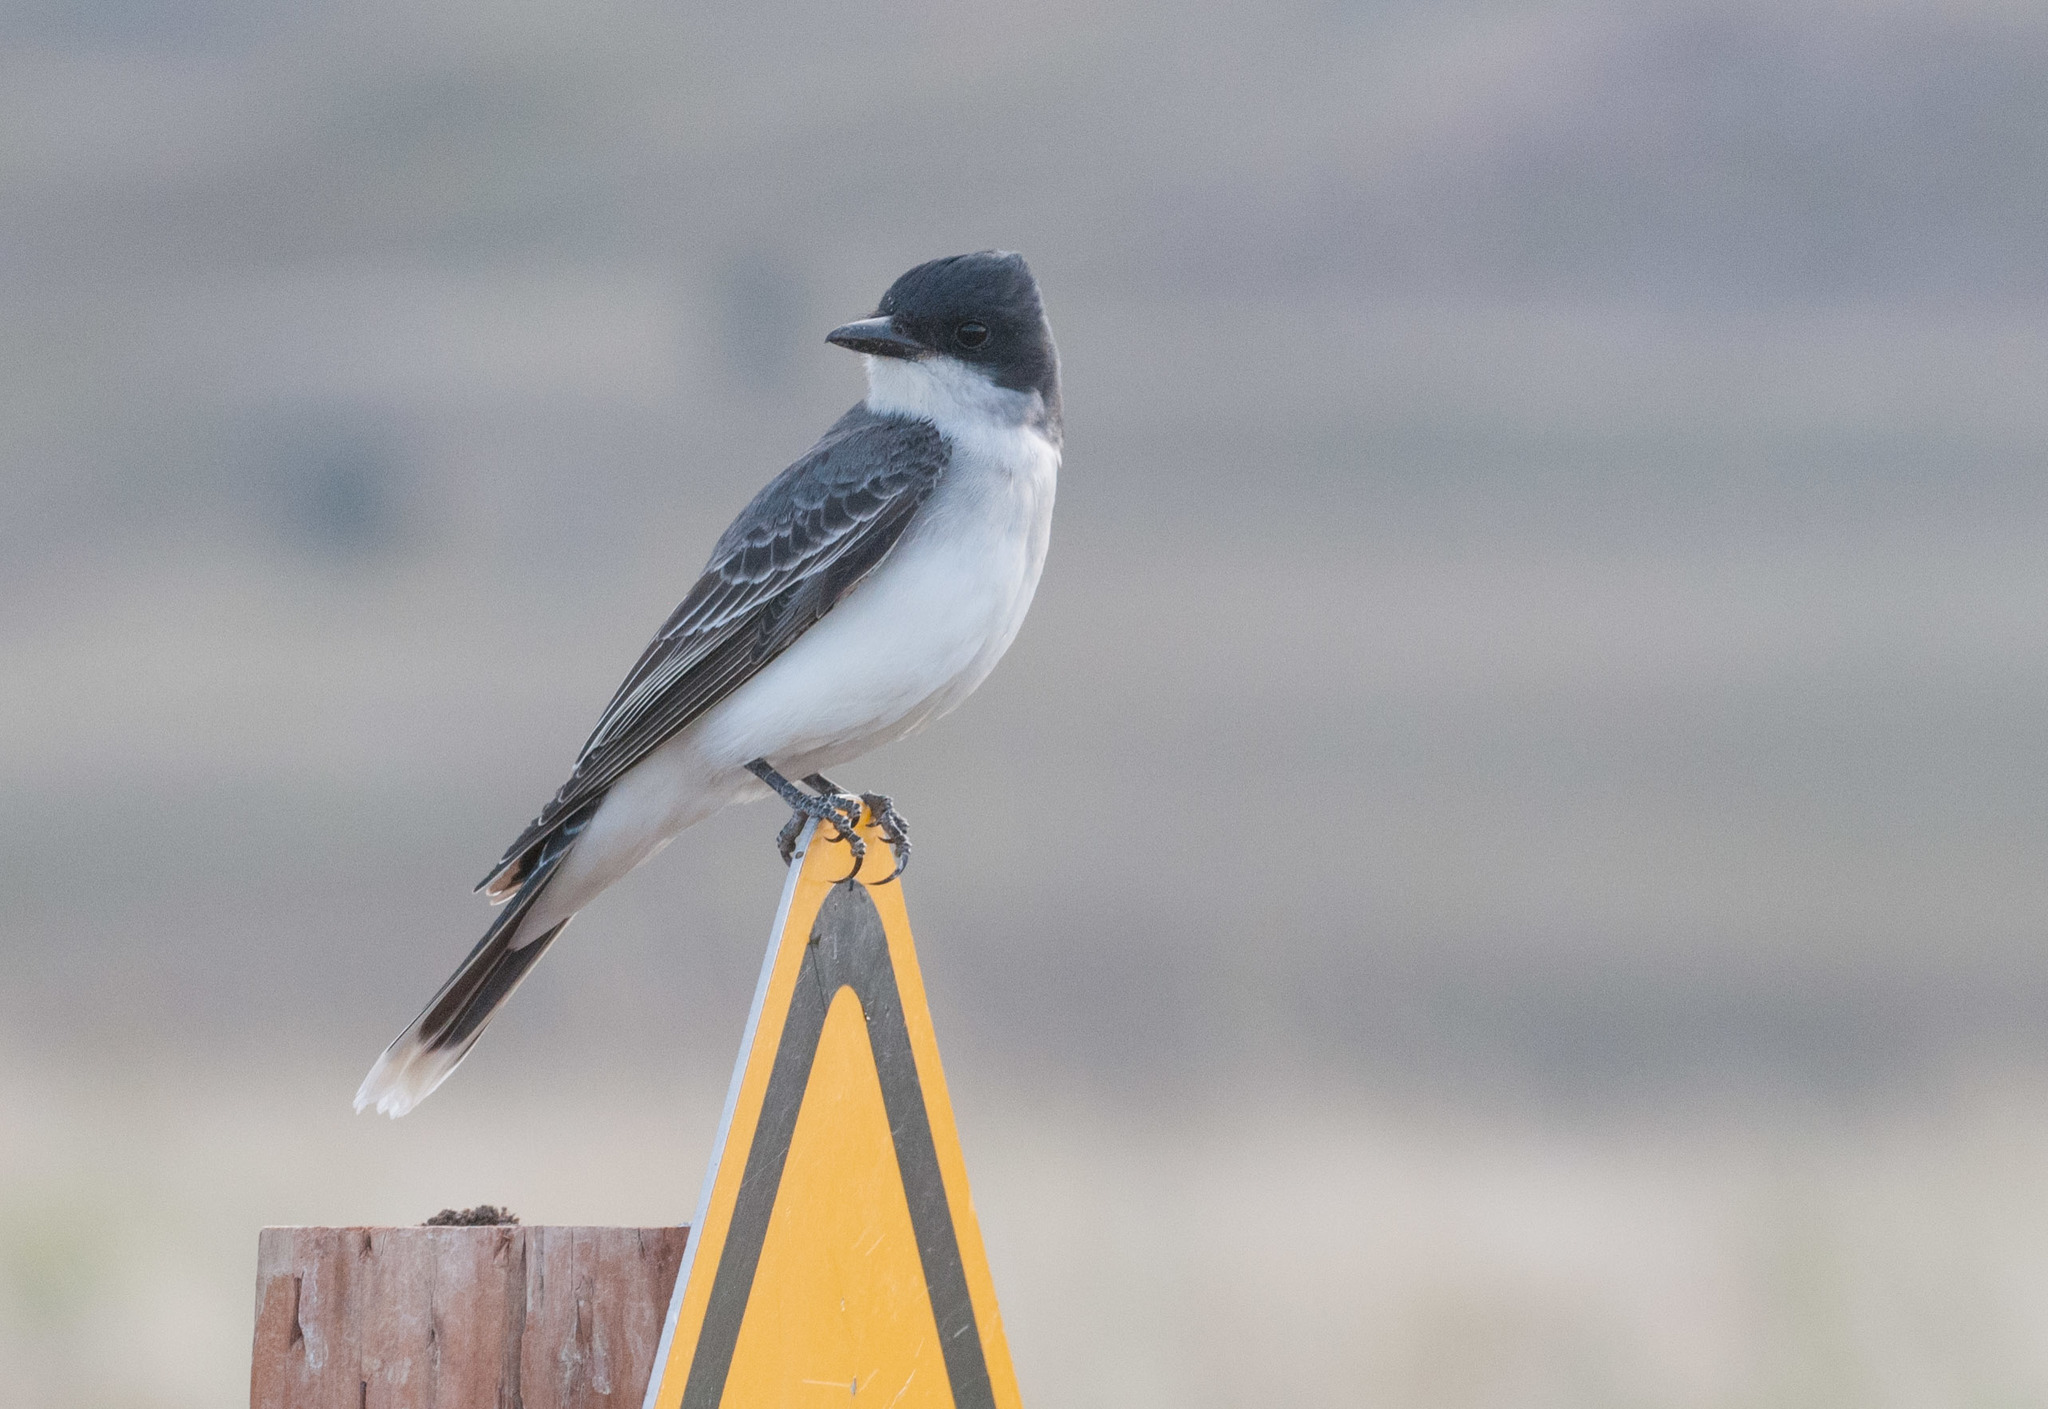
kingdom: Animalia
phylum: Chordata
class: Aves
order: Passeriformes
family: Tyrannidae
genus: Tyrannus
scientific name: Tyrannus tyrannus
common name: Eastern kingbird
